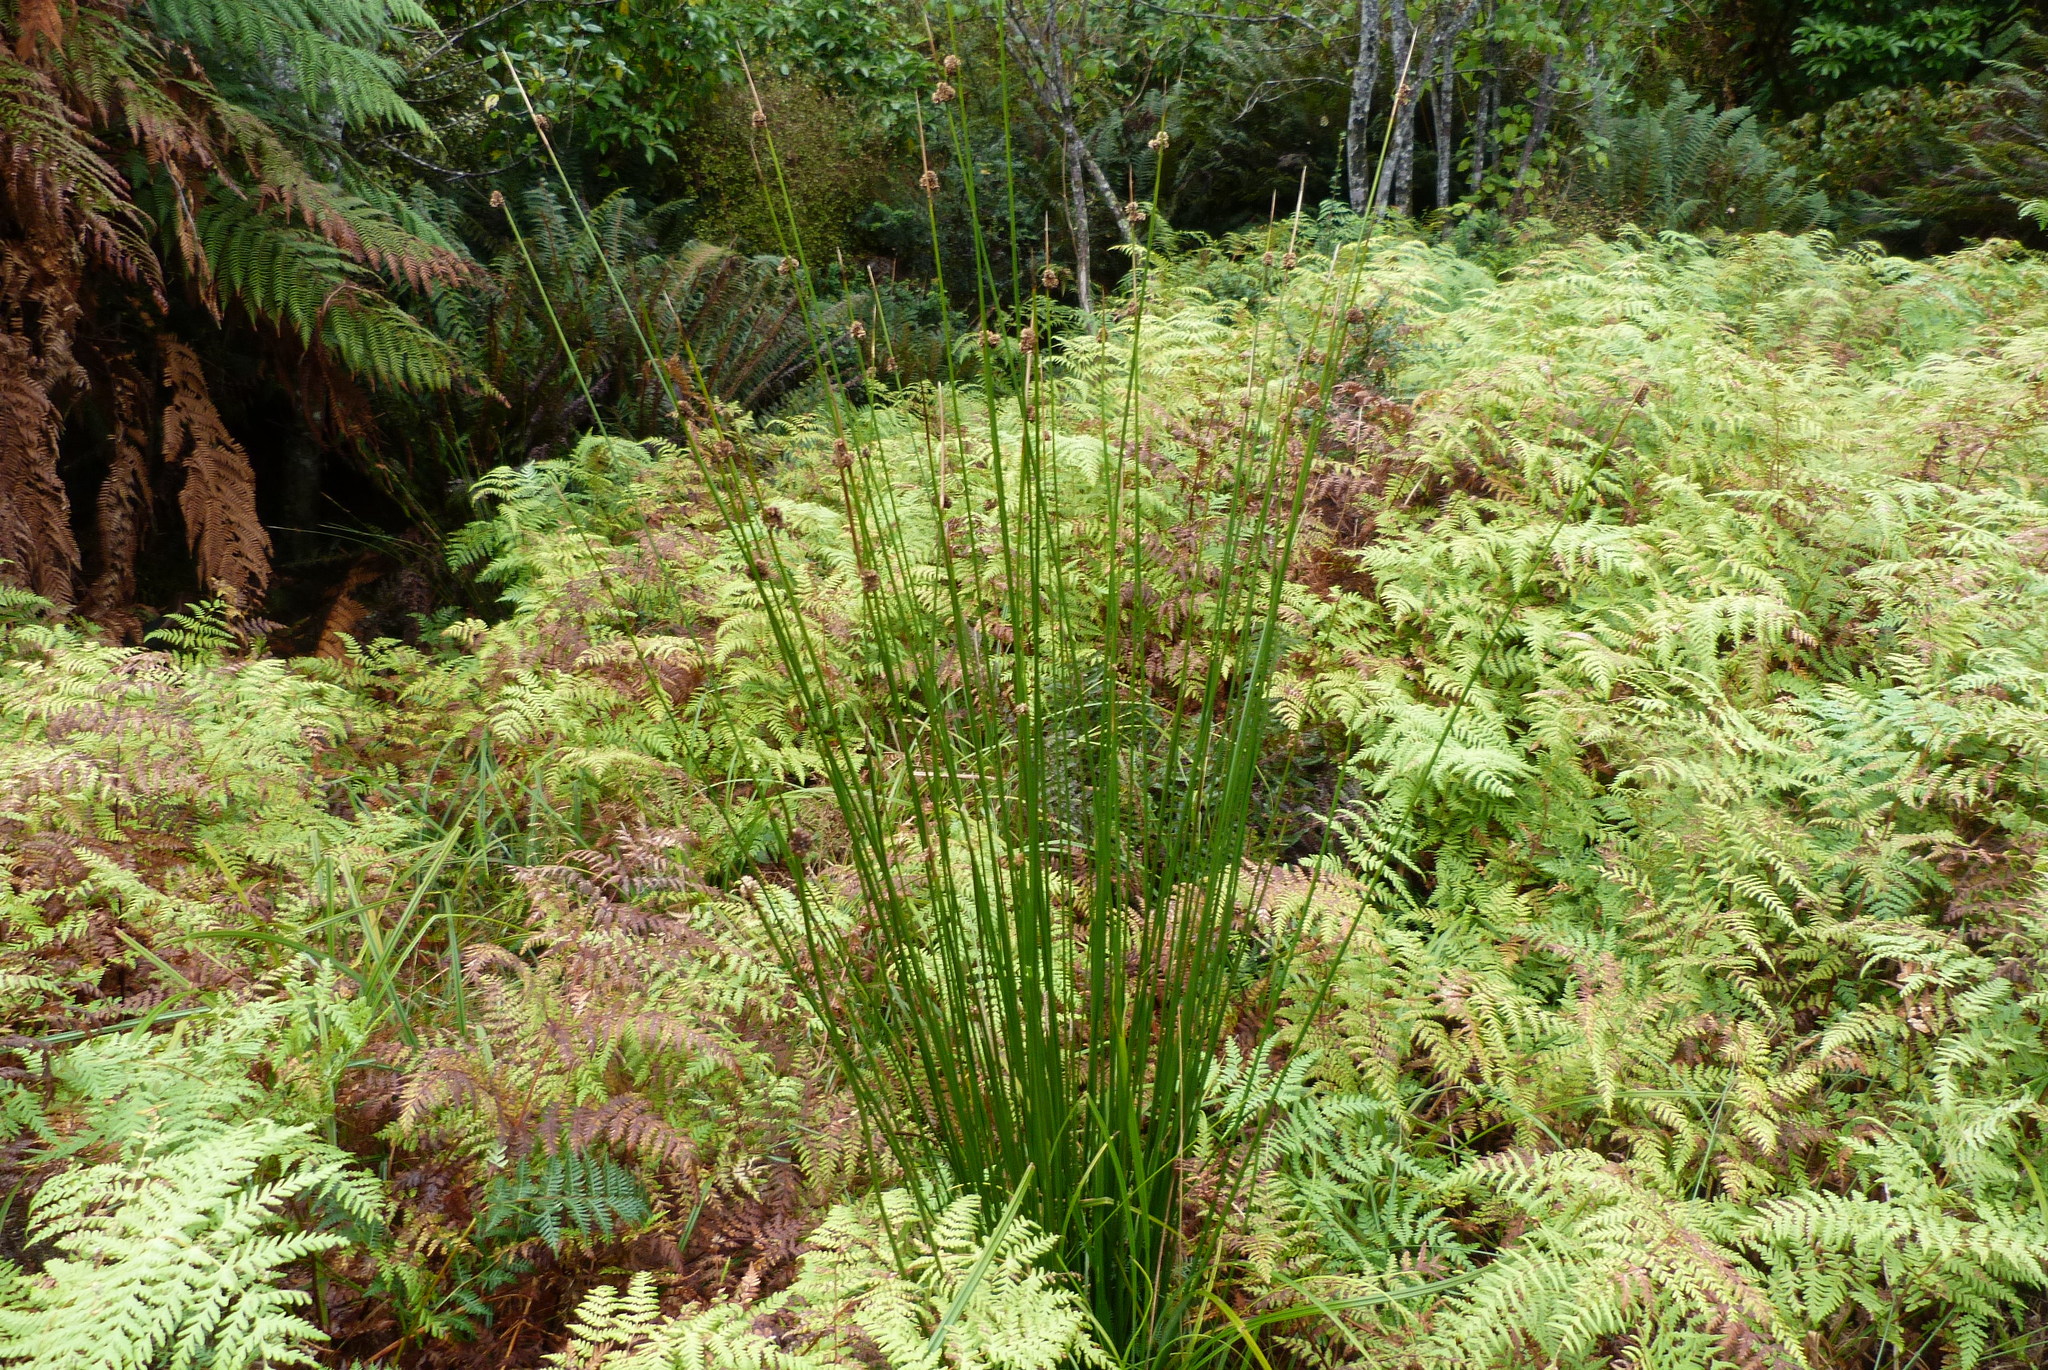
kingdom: Plantae
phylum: Tracheophyta
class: Liliopsida
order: Poales
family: Juncaceae
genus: Juncus
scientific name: Juncus edgariae
